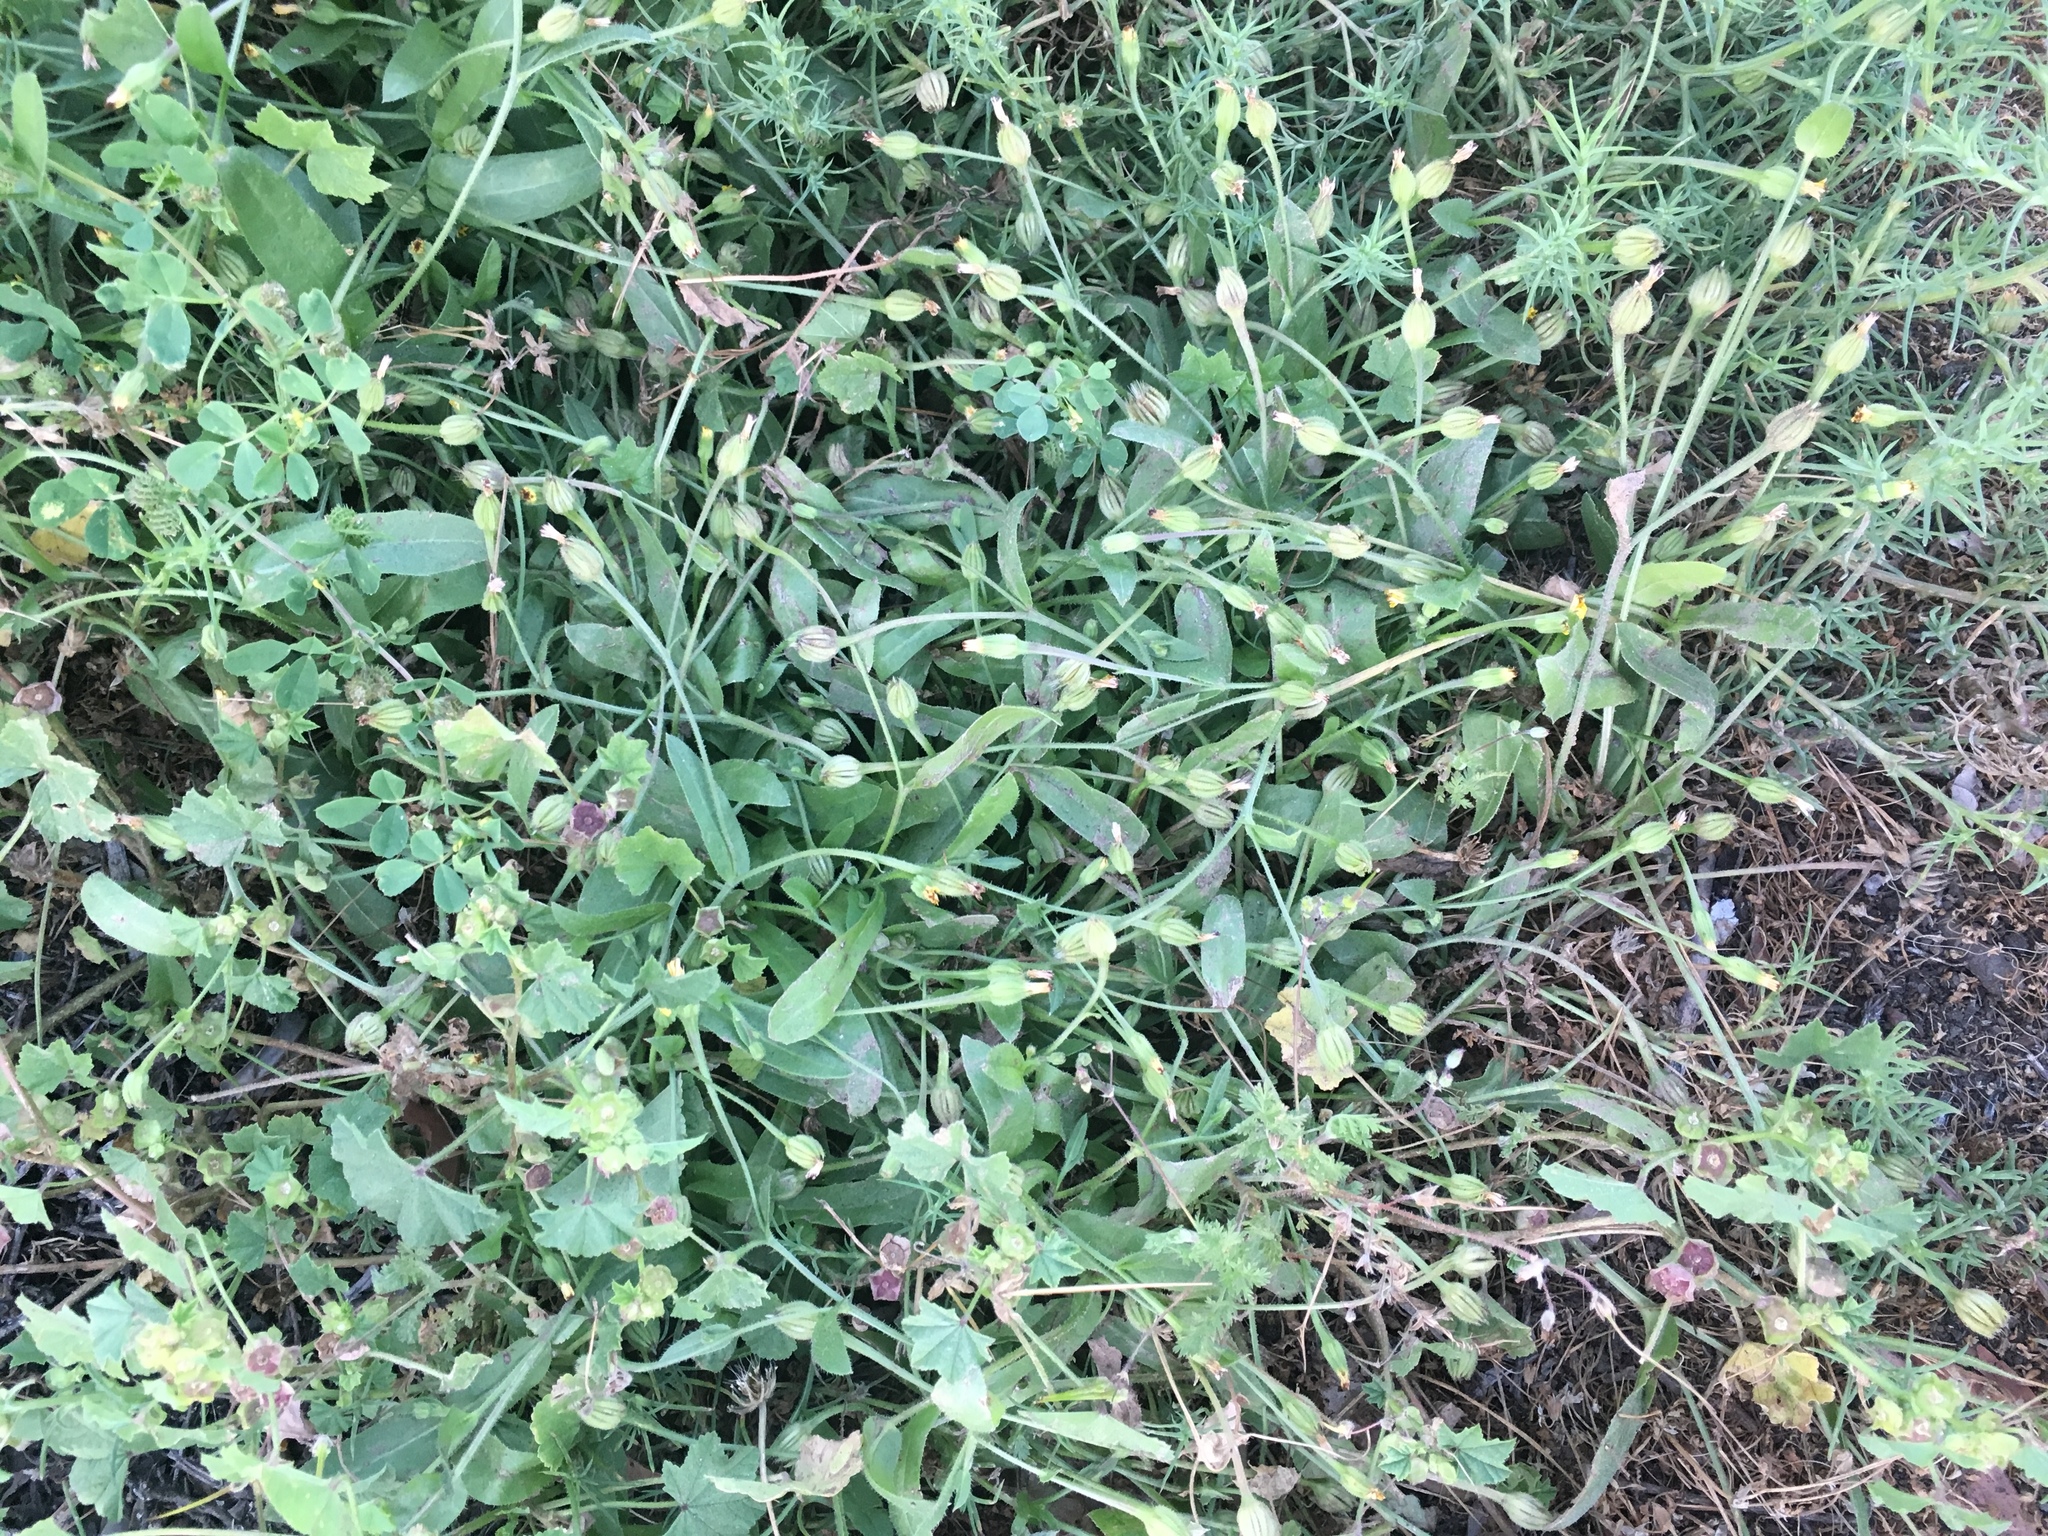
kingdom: Plantae
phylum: Tracheophyta
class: Magnoliopsida
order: Asterales
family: Asteraceae
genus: Hedypnois
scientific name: Hedypnois rhagadioloides
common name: Cretan weed
